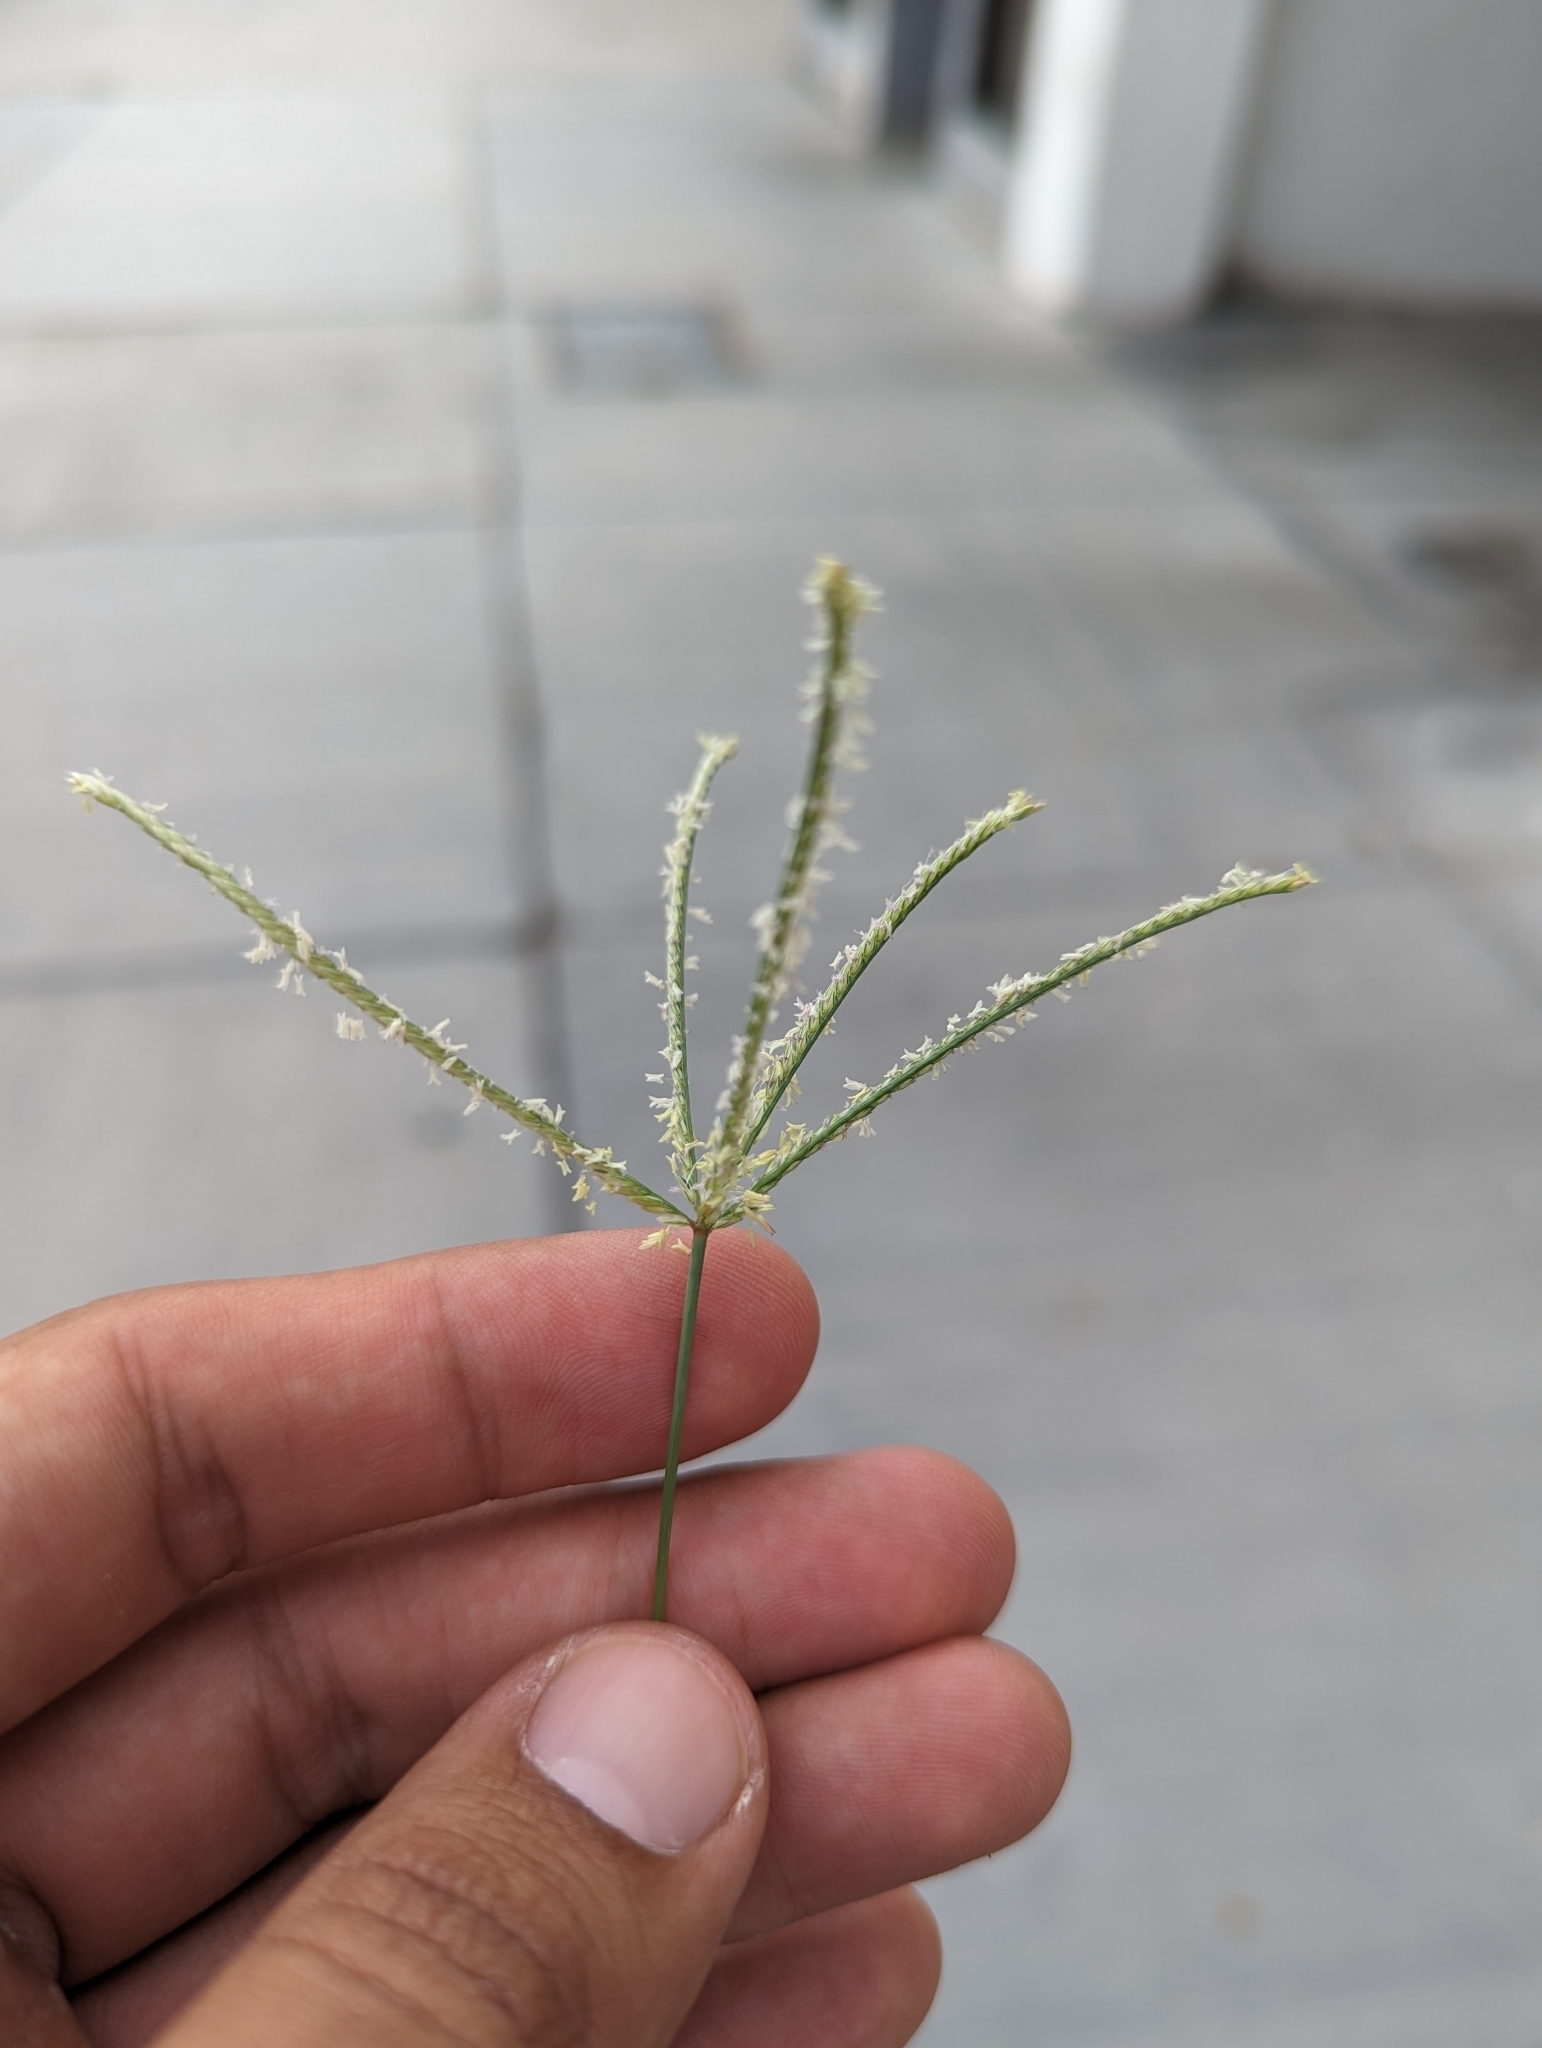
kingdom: Plantae
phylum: Tracheophyta
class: Liliopsida
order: Poales
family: Poaceae
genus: Cynodon
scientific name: Cynodon dactylon
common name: Bermuda grass
